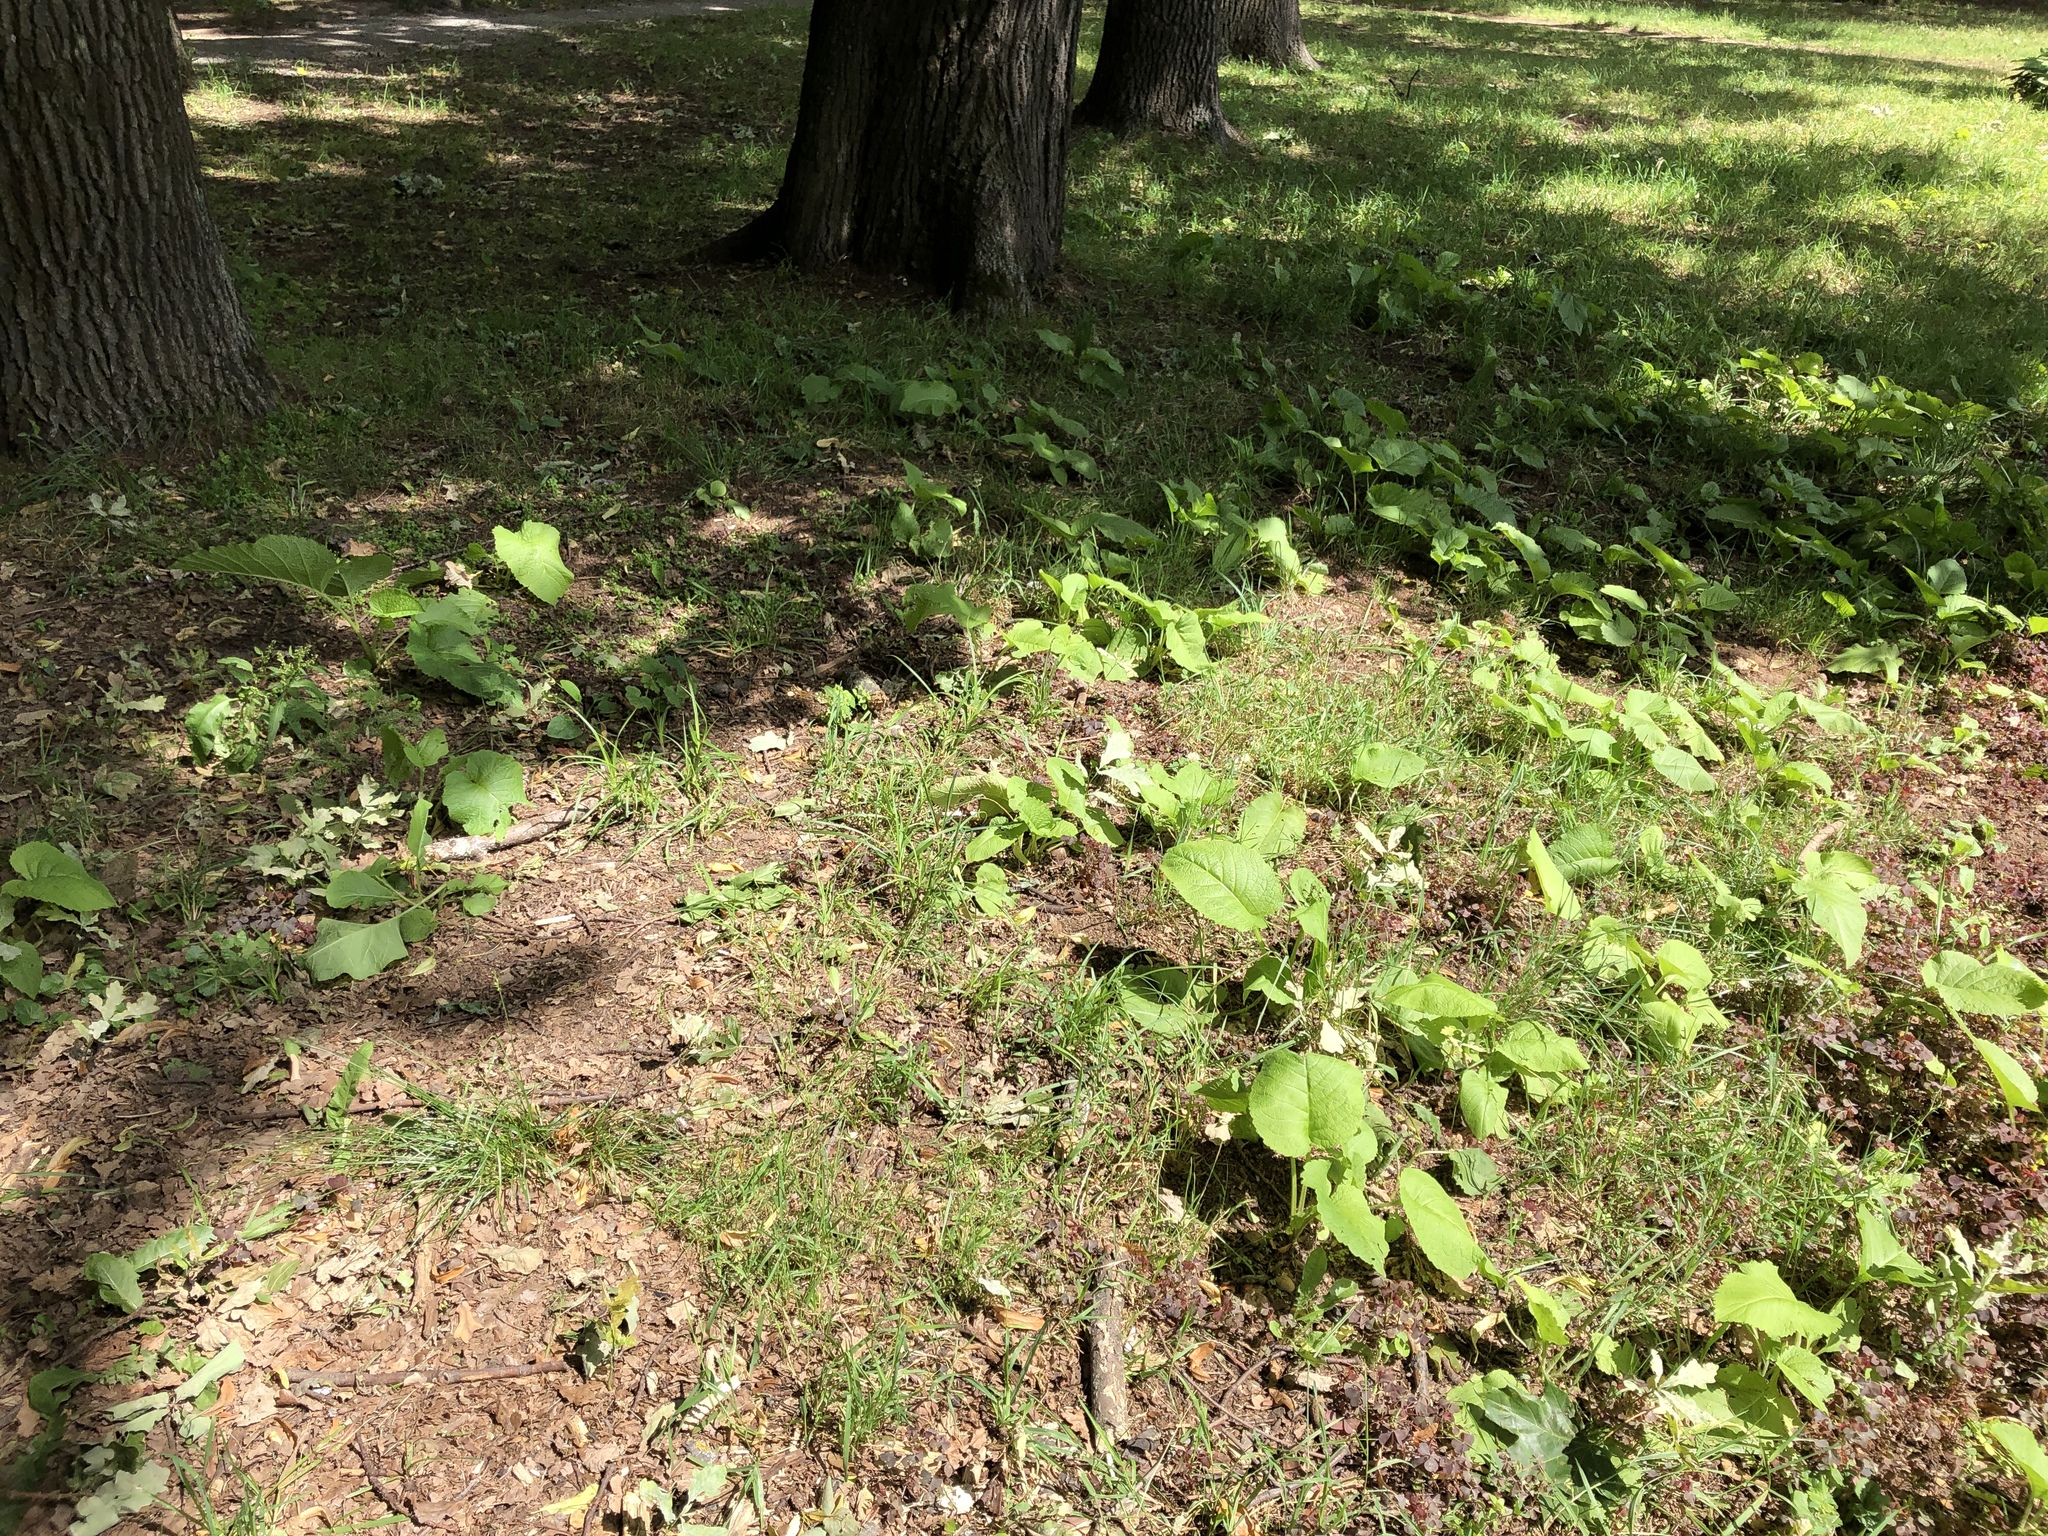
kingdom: Plantae
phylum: Tracheophyta
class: Magnoliopsida
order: Asterales
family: Asteraceae
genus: Telekia
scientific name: Telekia speciosa
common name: Yellow oxeye
